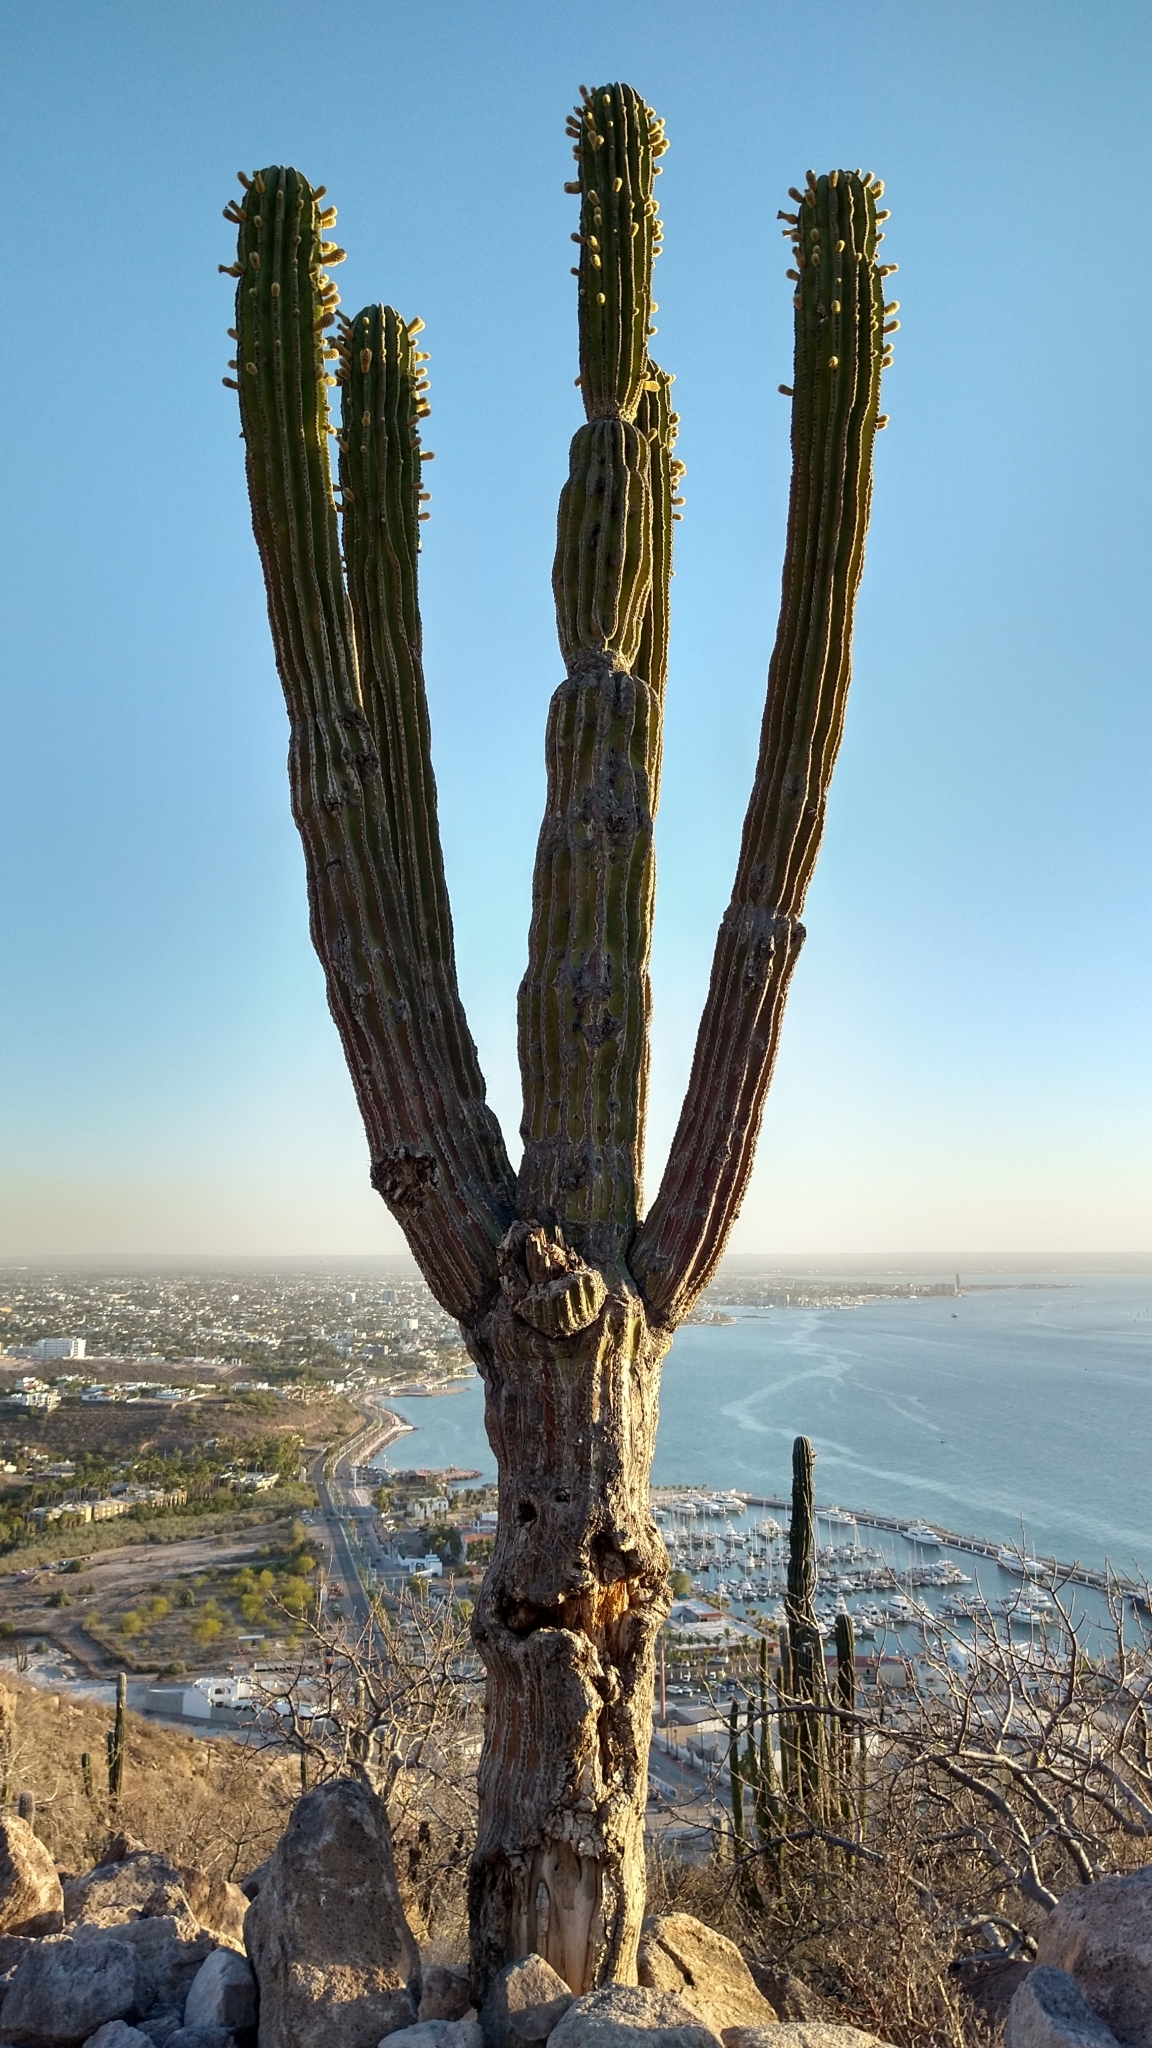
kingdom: Plantae
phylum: Tracheophyta
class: Magnoliopsida
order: Caryophyllales
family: Cactaceae
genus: Pachycereus
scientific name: Pachycereus pringlei
